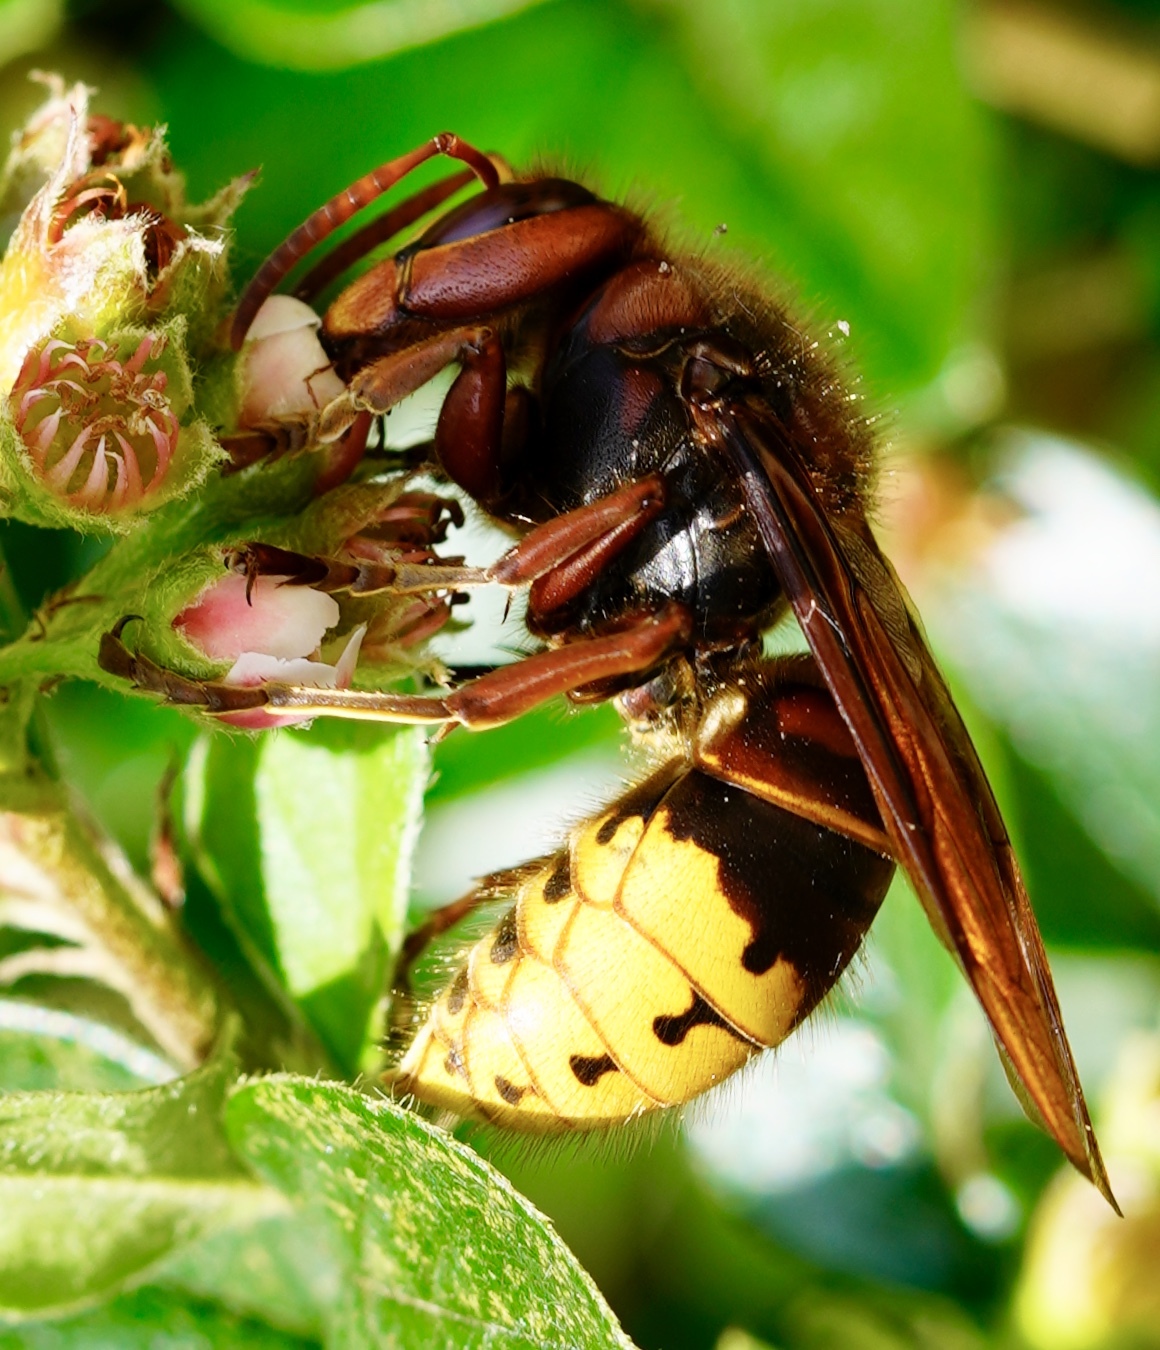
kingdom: Animalia
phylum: Arthropoda
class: Insecta
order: Hymenoptera
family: Vespidae
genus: Vespa
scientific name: Vespa crabro
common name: Hornet
